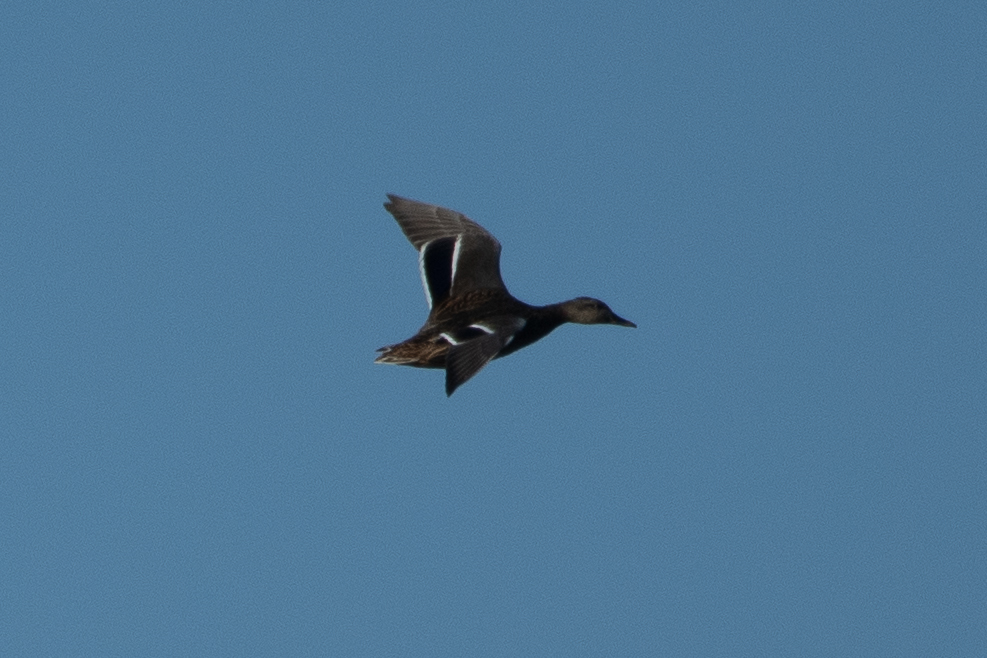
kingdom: Animalia
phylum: Chordata
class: Aves
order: Anseriformes
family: Anatidae
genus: Anas
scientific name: Anas platyrhynchos
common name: Mallard
